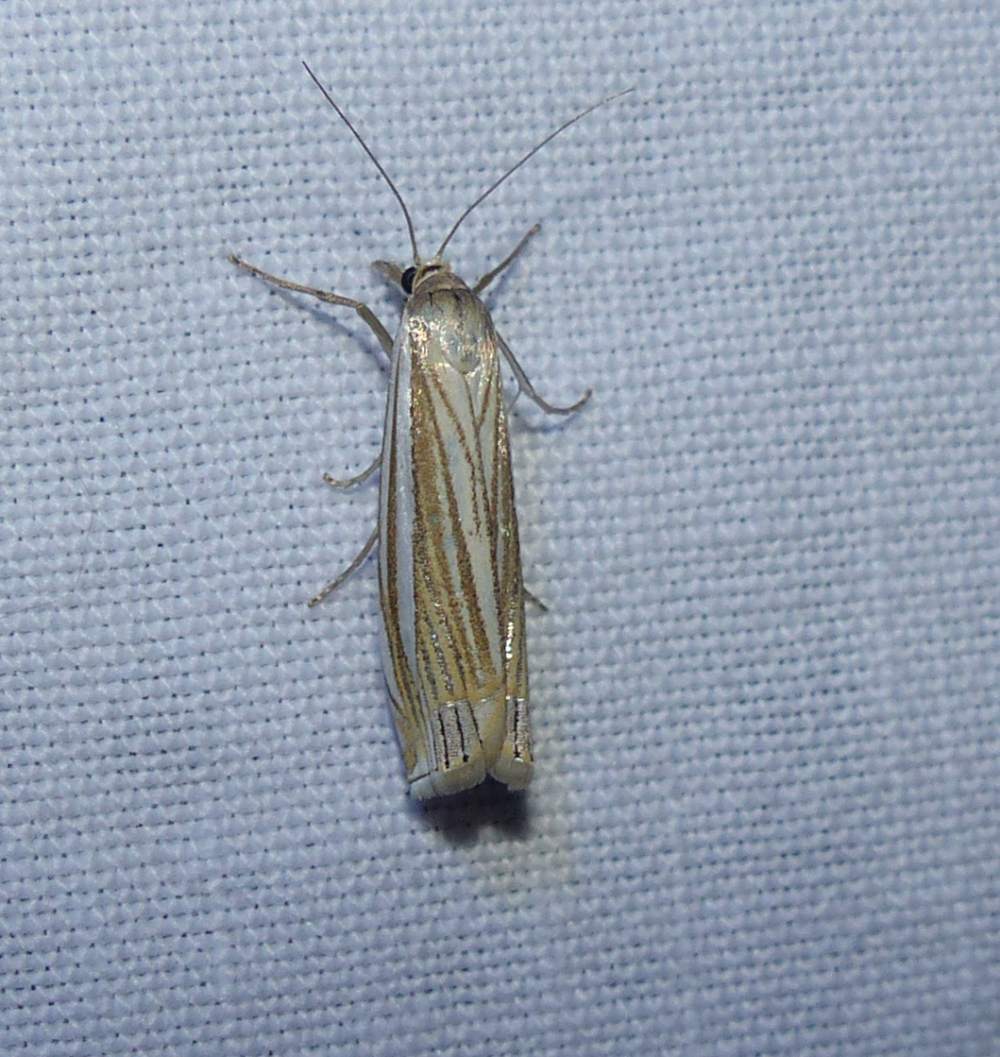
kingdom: Animalia
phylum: Arthropoda
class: Insecta
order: Lepidoptera
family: Crambidae
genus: Crambus
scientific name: Crambus laqueatellus
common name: Eastern grass-veneer
